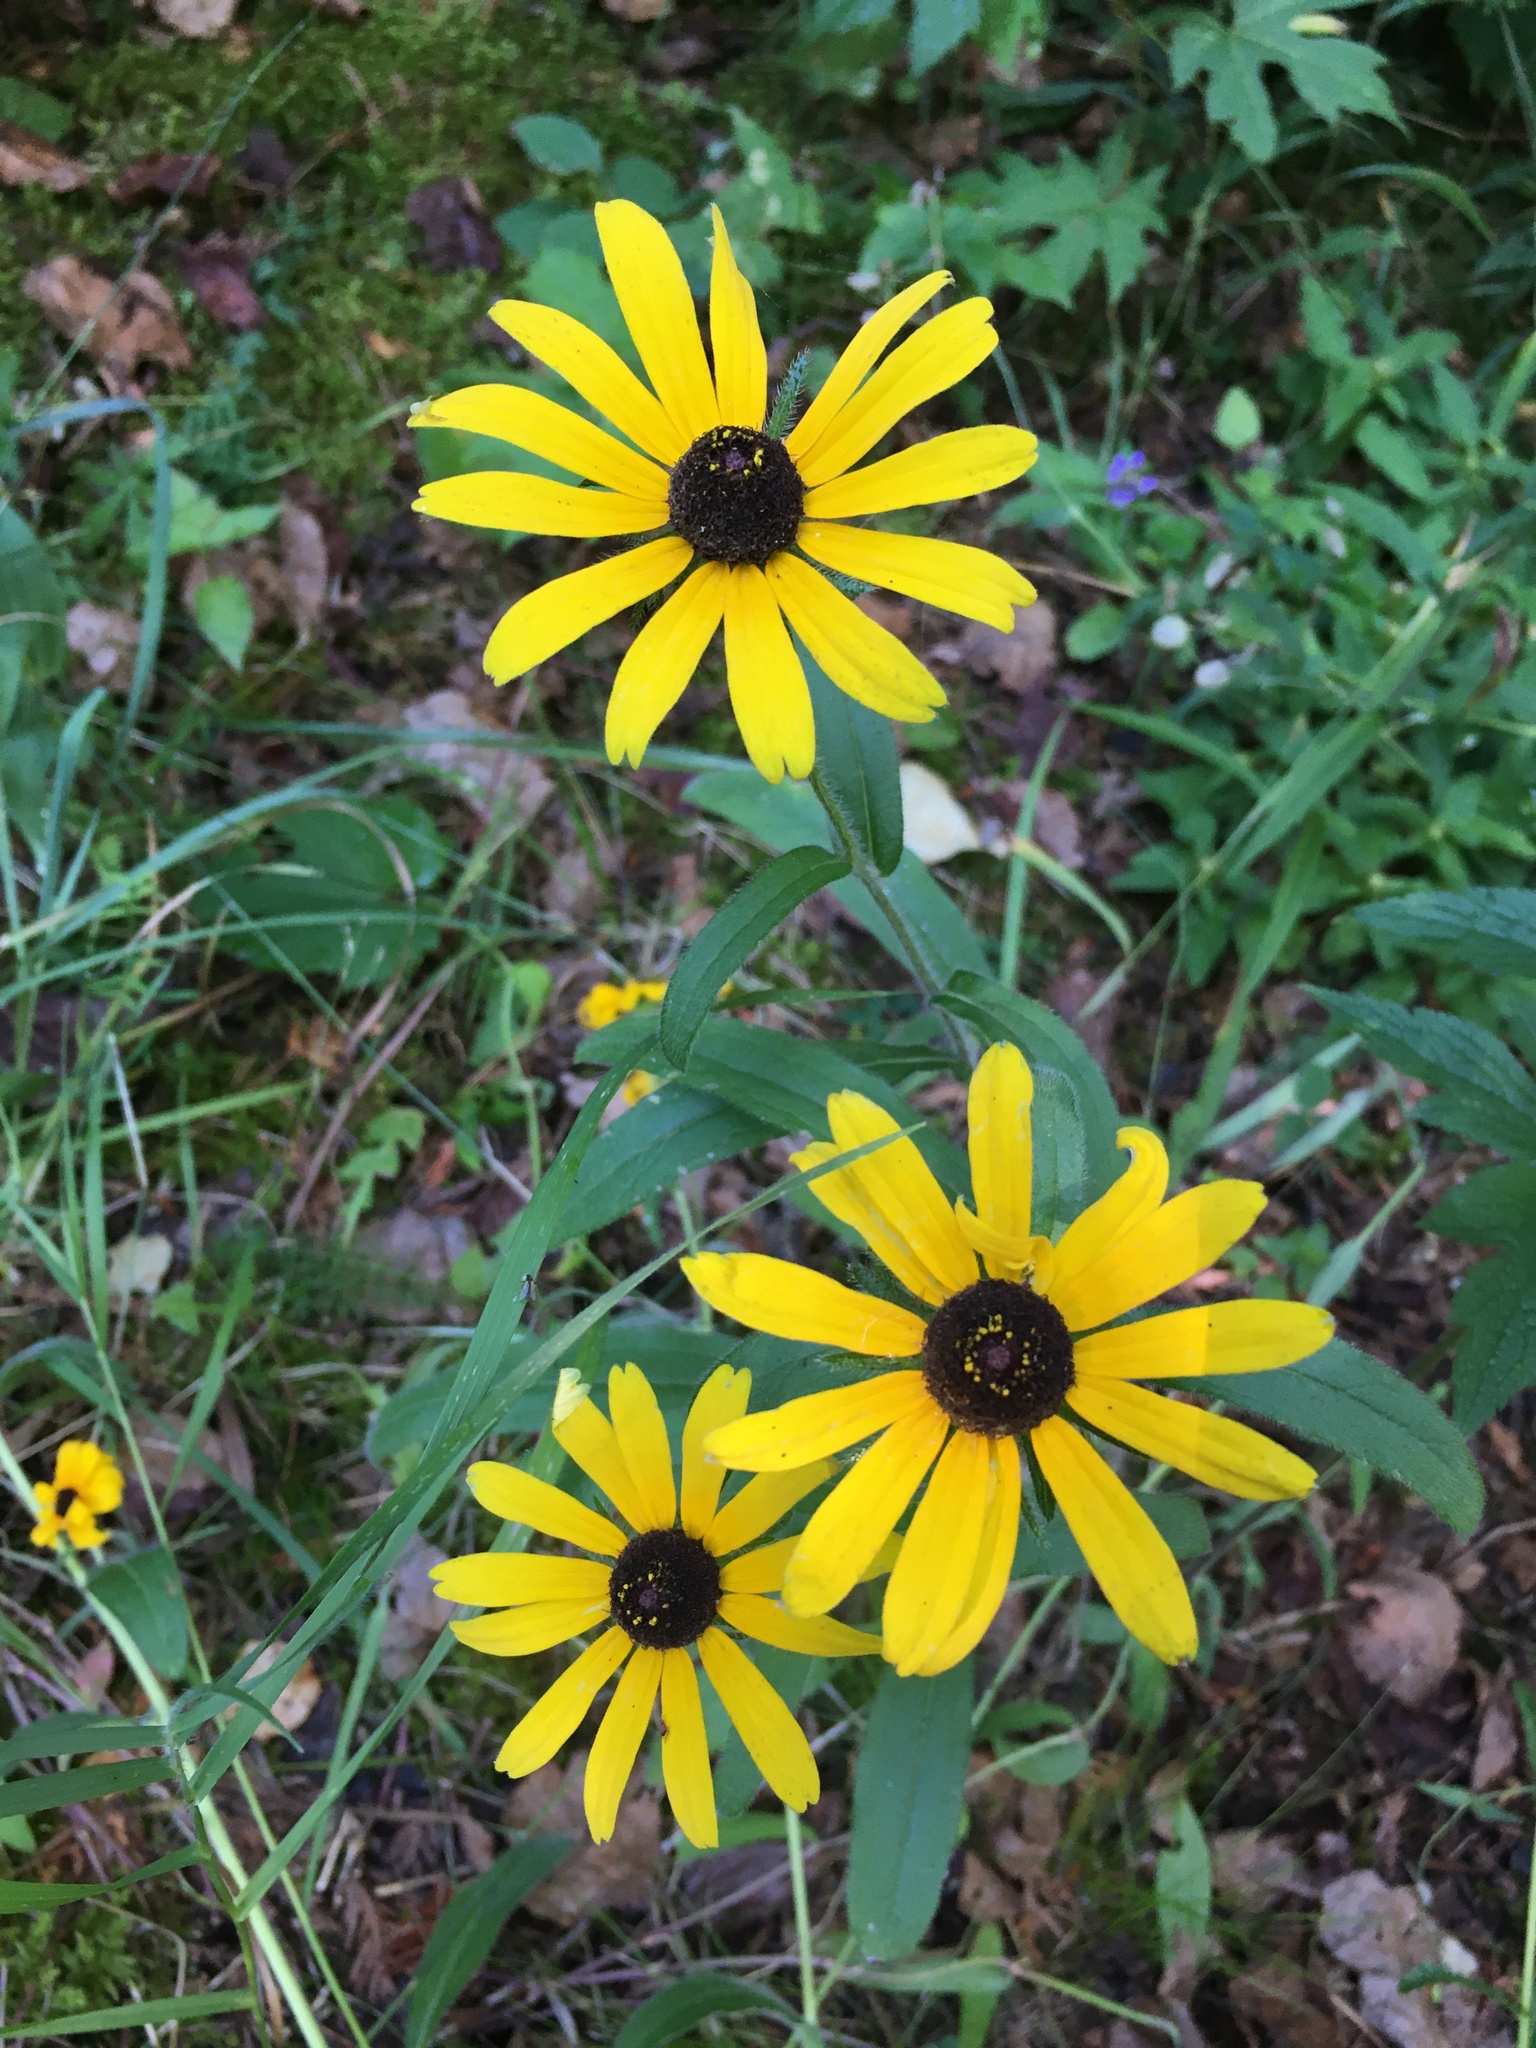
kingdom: Plantae
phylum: Tracheophyta
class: Magnoliopsida
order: Asterales
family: Asteraceae
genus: Rudbeckia
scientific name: Rudbeckia hirta
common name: Black-eyed-susan
